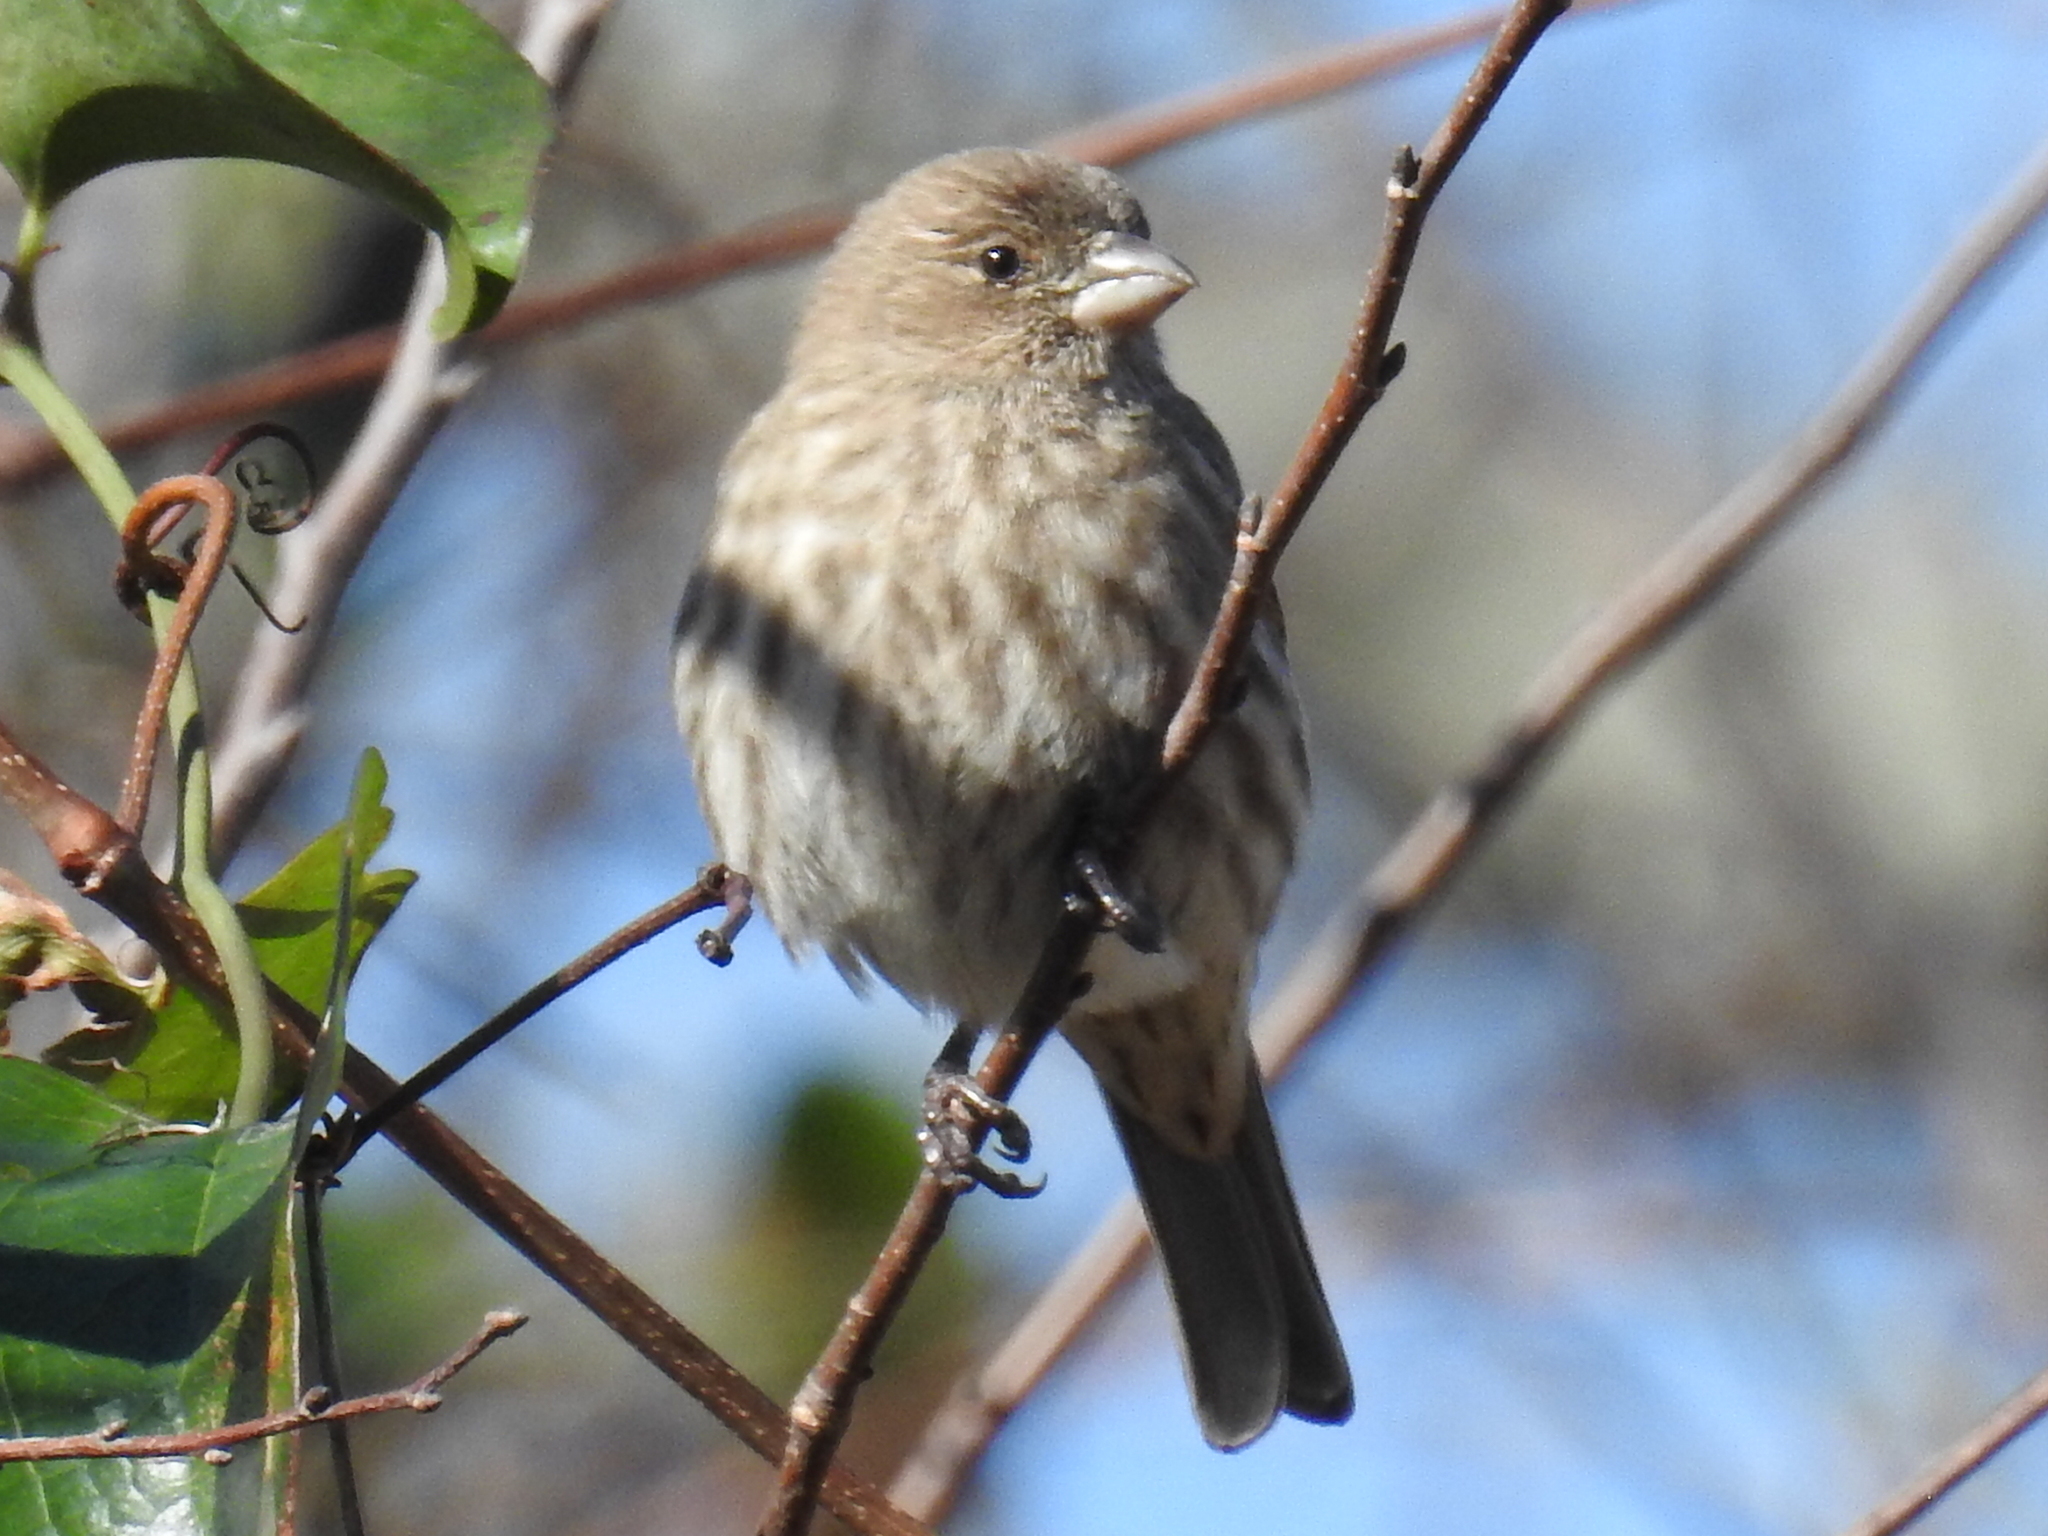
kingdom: Animalia
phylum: Chordata
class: Aves
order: Passeriformes
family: Fringillidae
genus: Haemorhous
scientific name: Haemorhous mexicanus
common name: House finch
